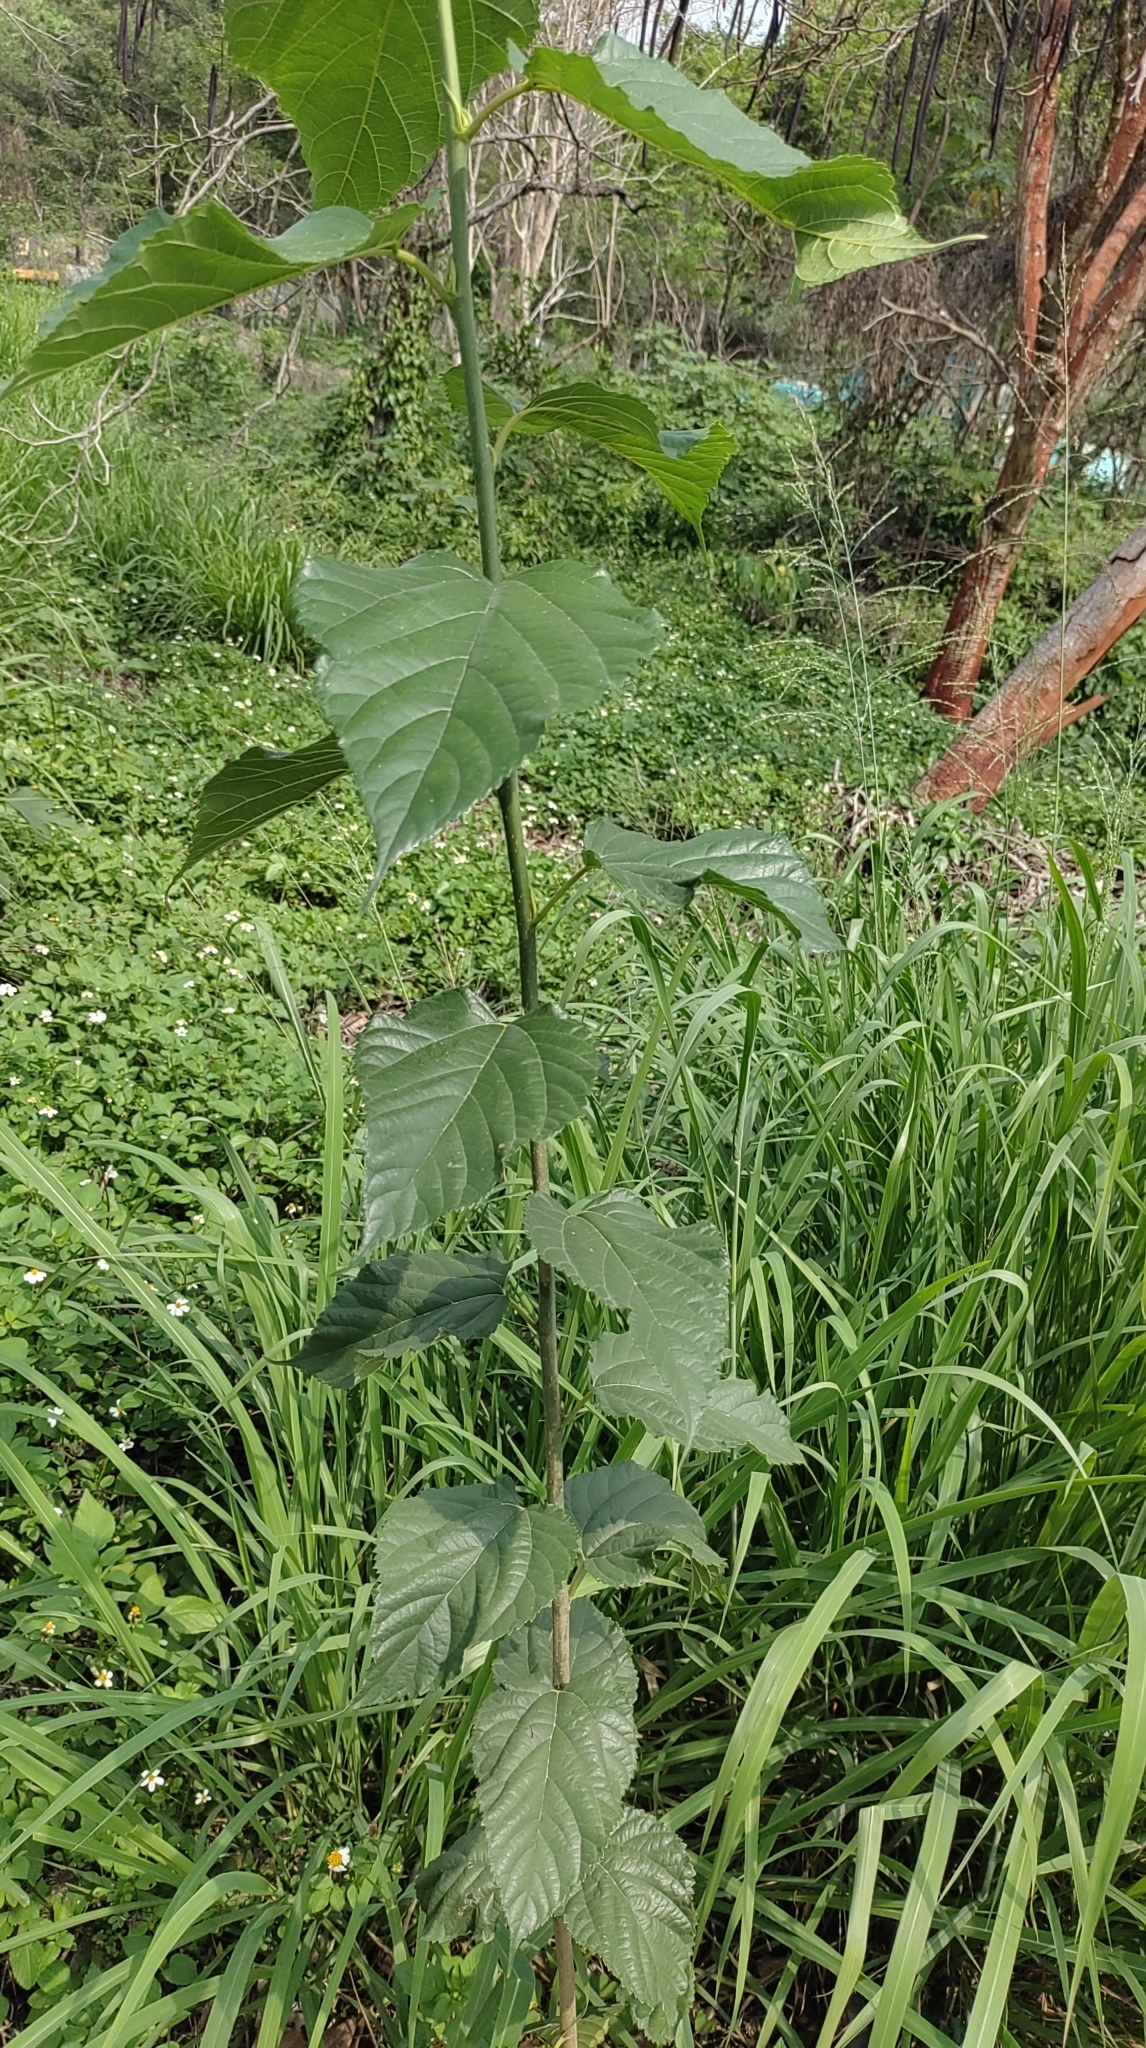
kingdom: Plantae
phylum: Tracheophyta
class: Magnoliopsida
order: Rosales
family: Moraceae
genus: Morus
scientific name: Morus indica
